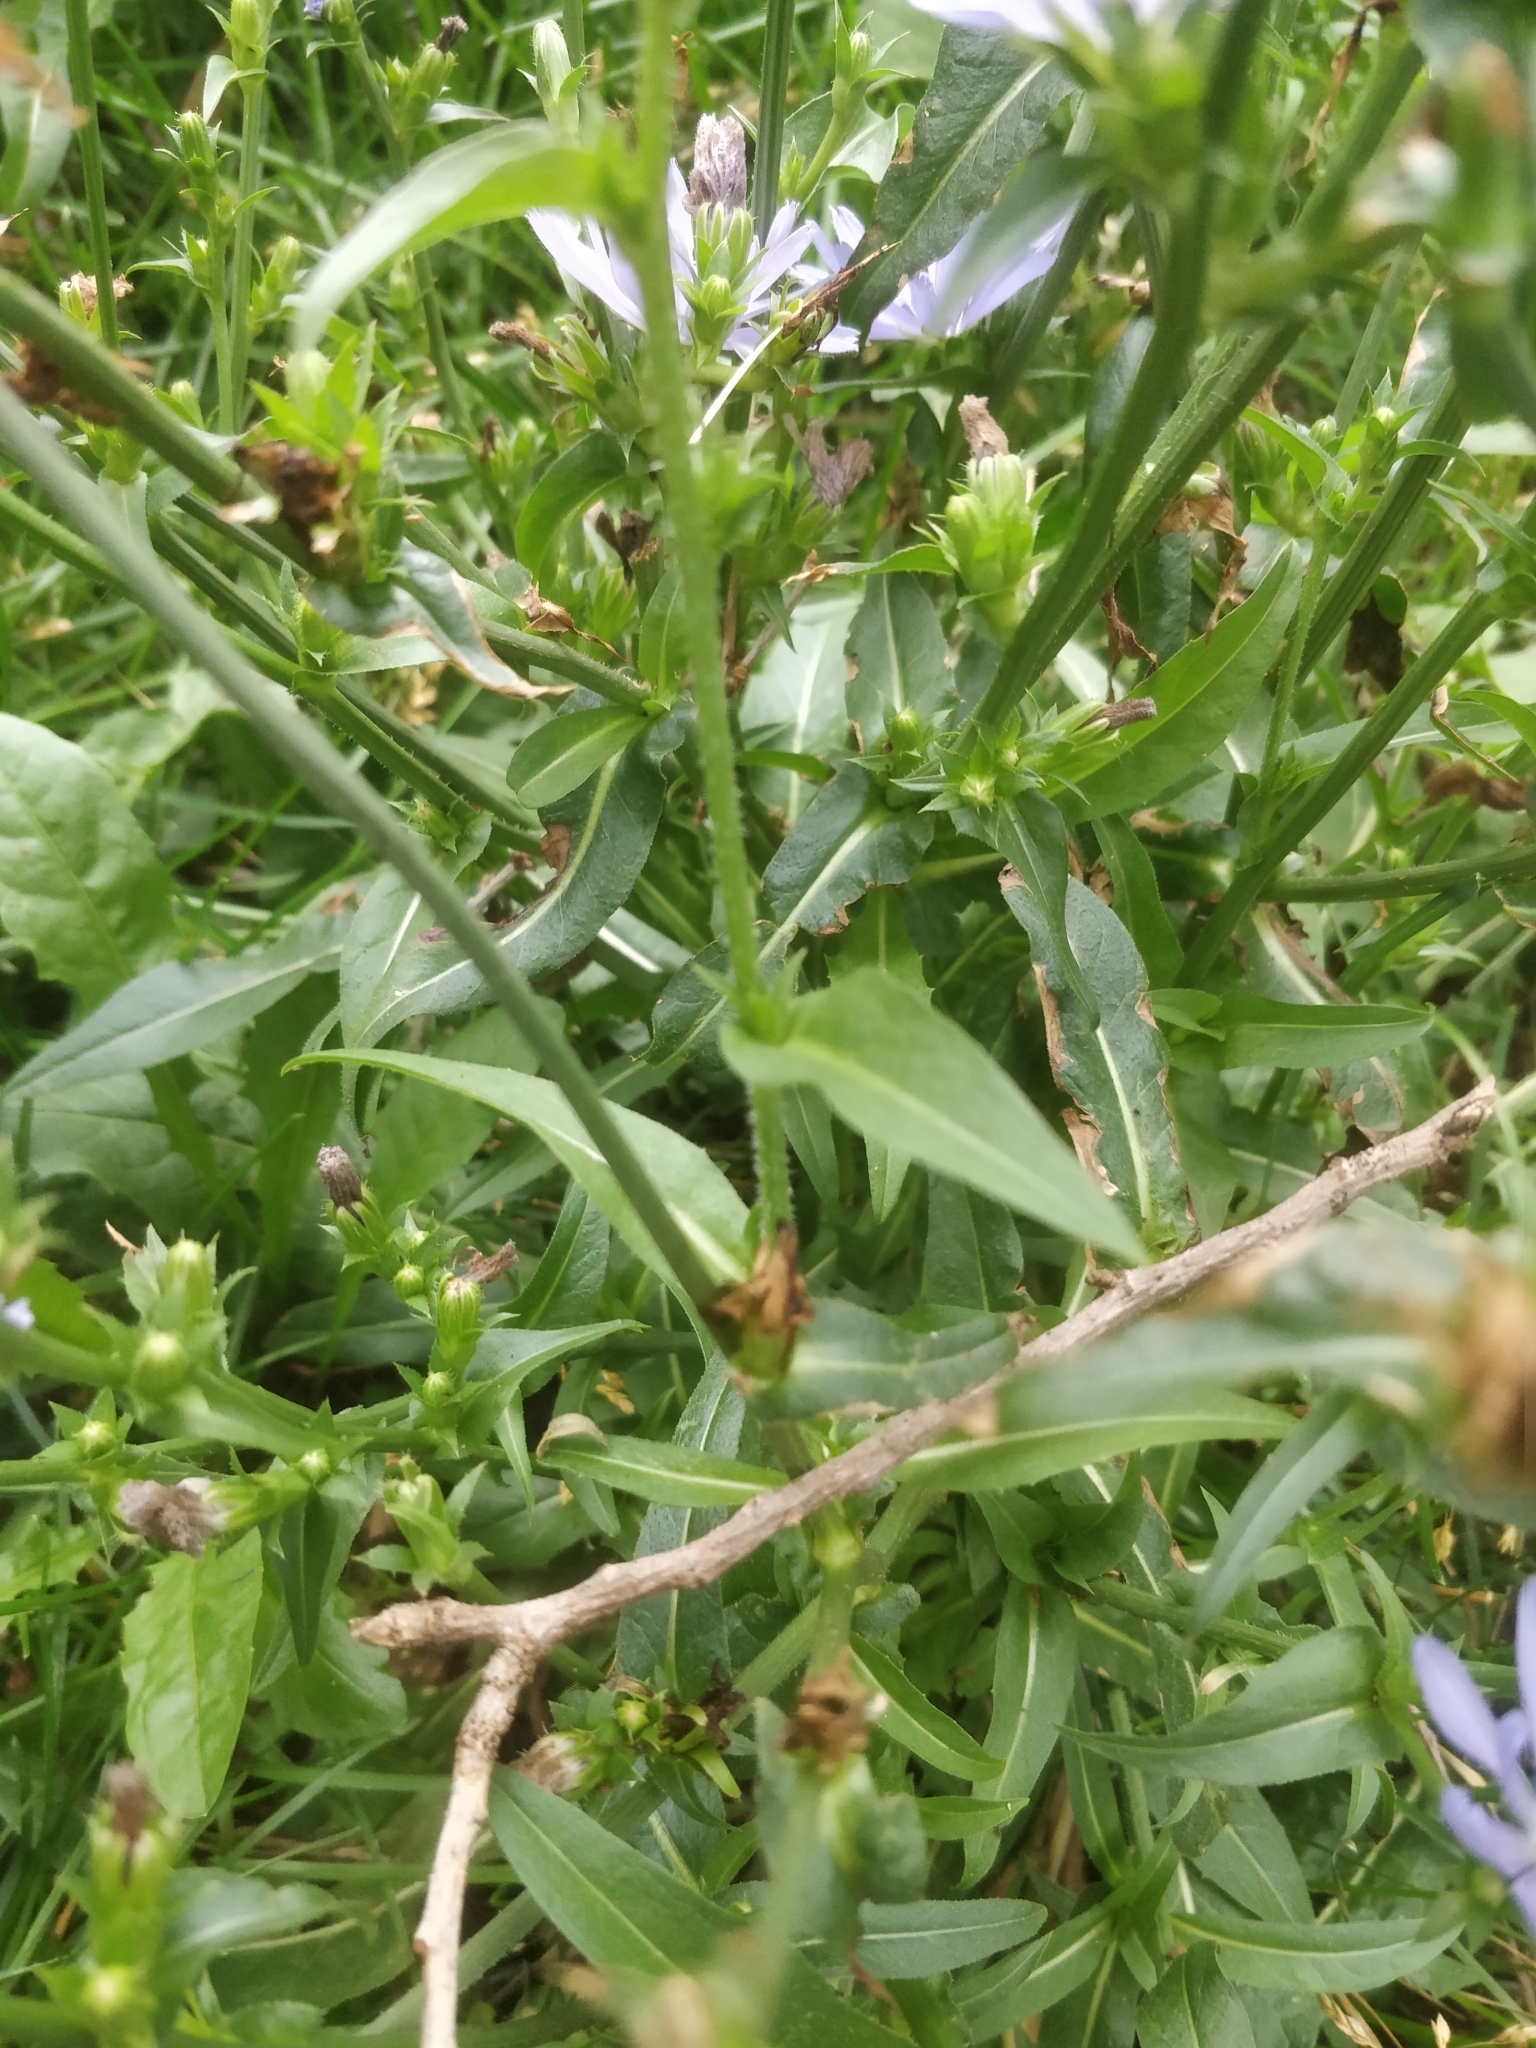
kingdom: Plantae
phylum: Tracheophyta
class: Magnoliopsida
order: Asterales
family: Asteraceae
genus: Cichorium
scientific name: Cichorium intybus
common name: Chicory
